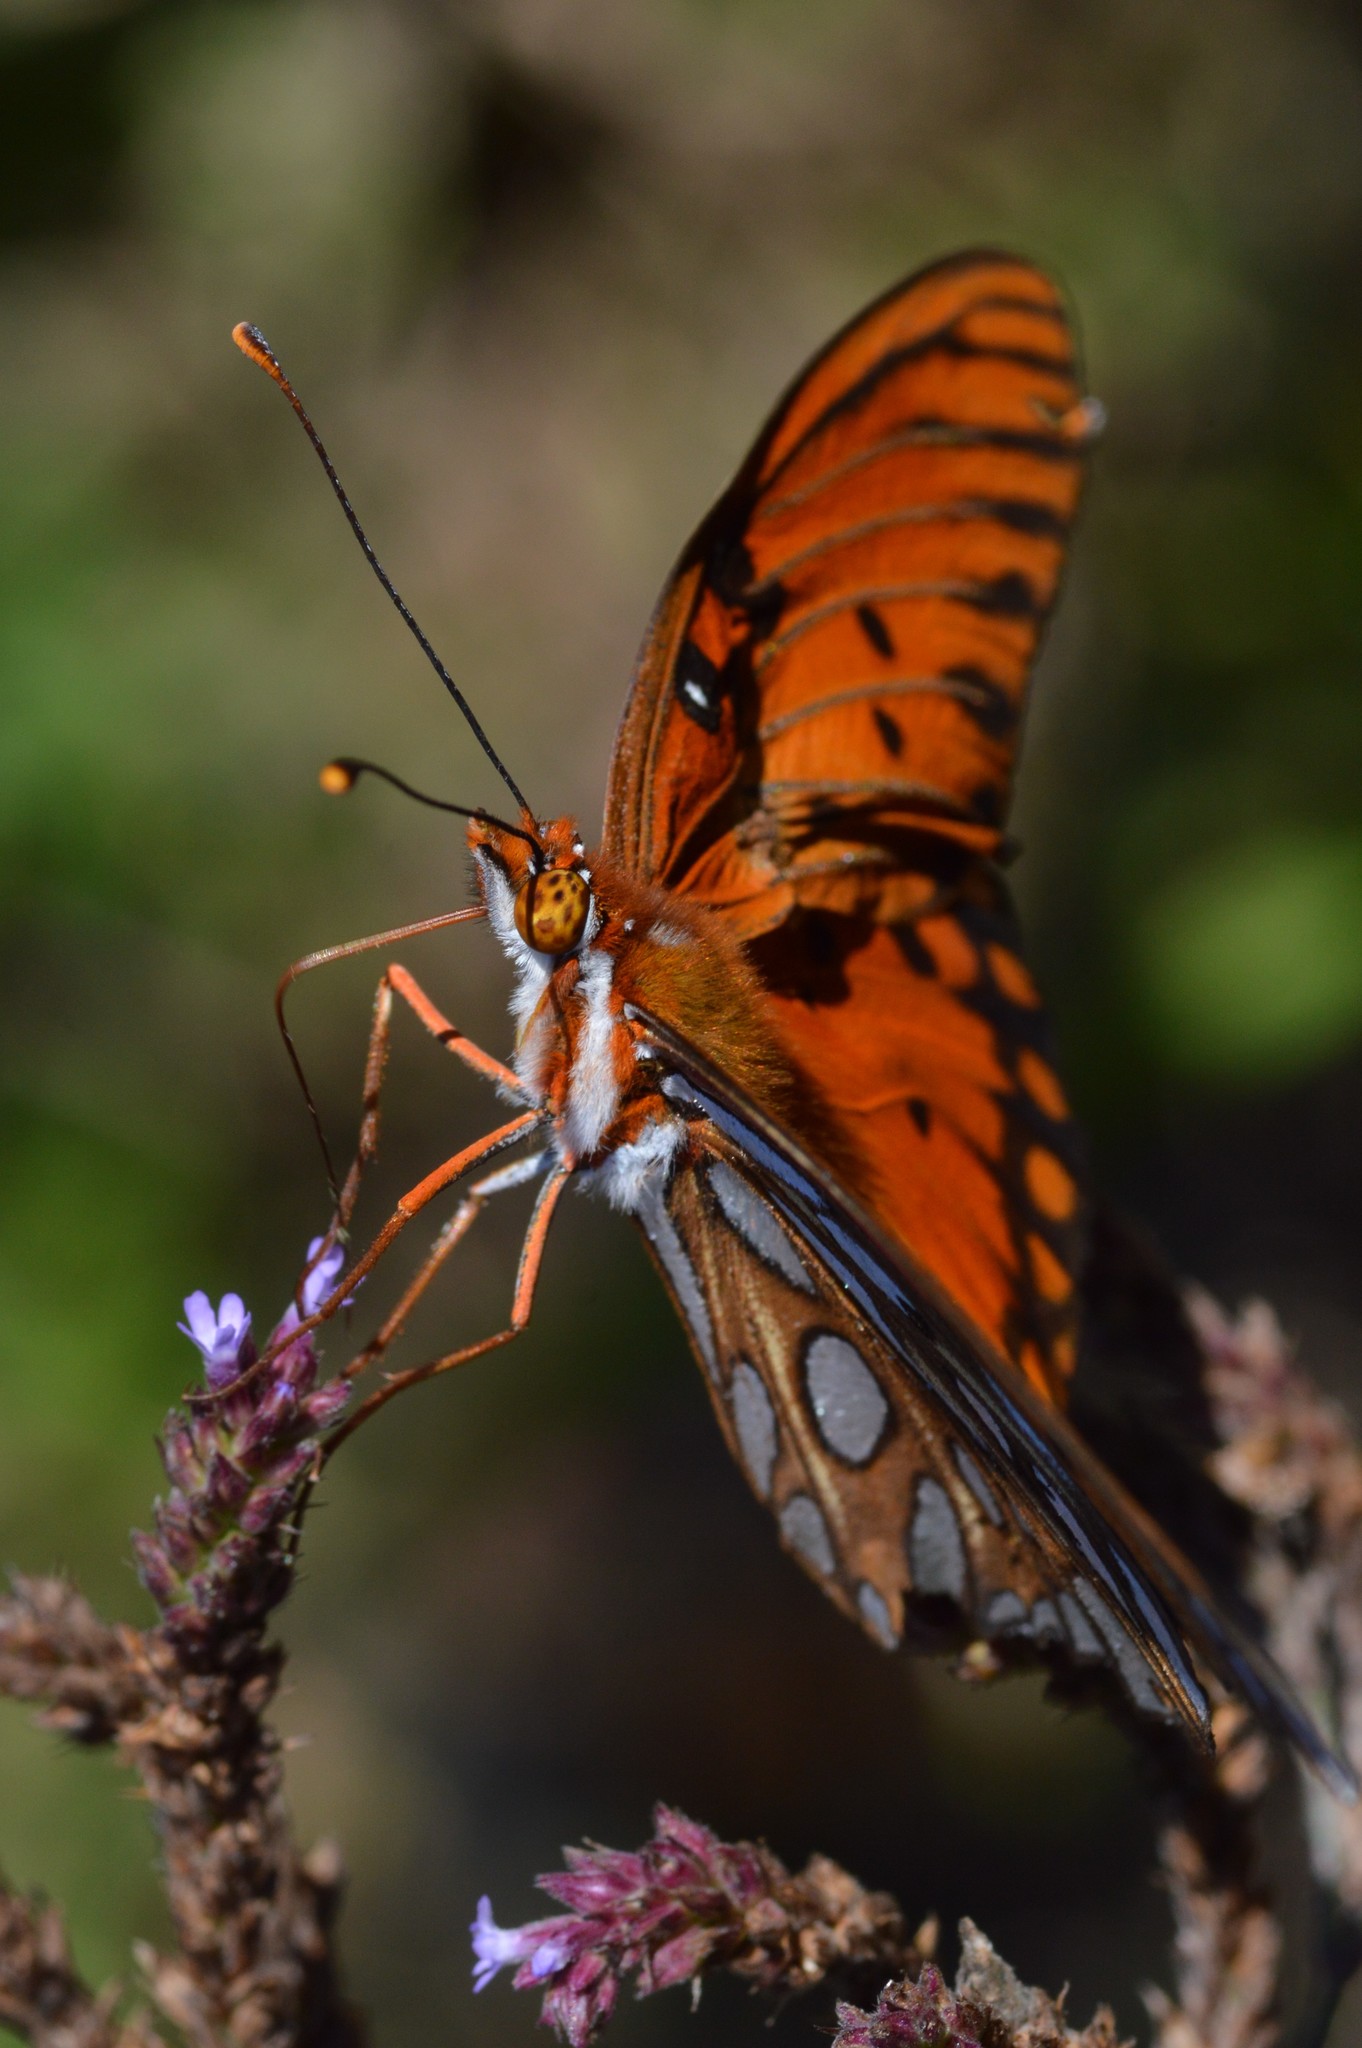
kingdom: Animalia
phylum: Arthropoda
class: Insecta
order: Lepidoptera
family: Nymphalidae
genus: Dione
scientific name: Dione vanillae
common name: Gulf fritillary
